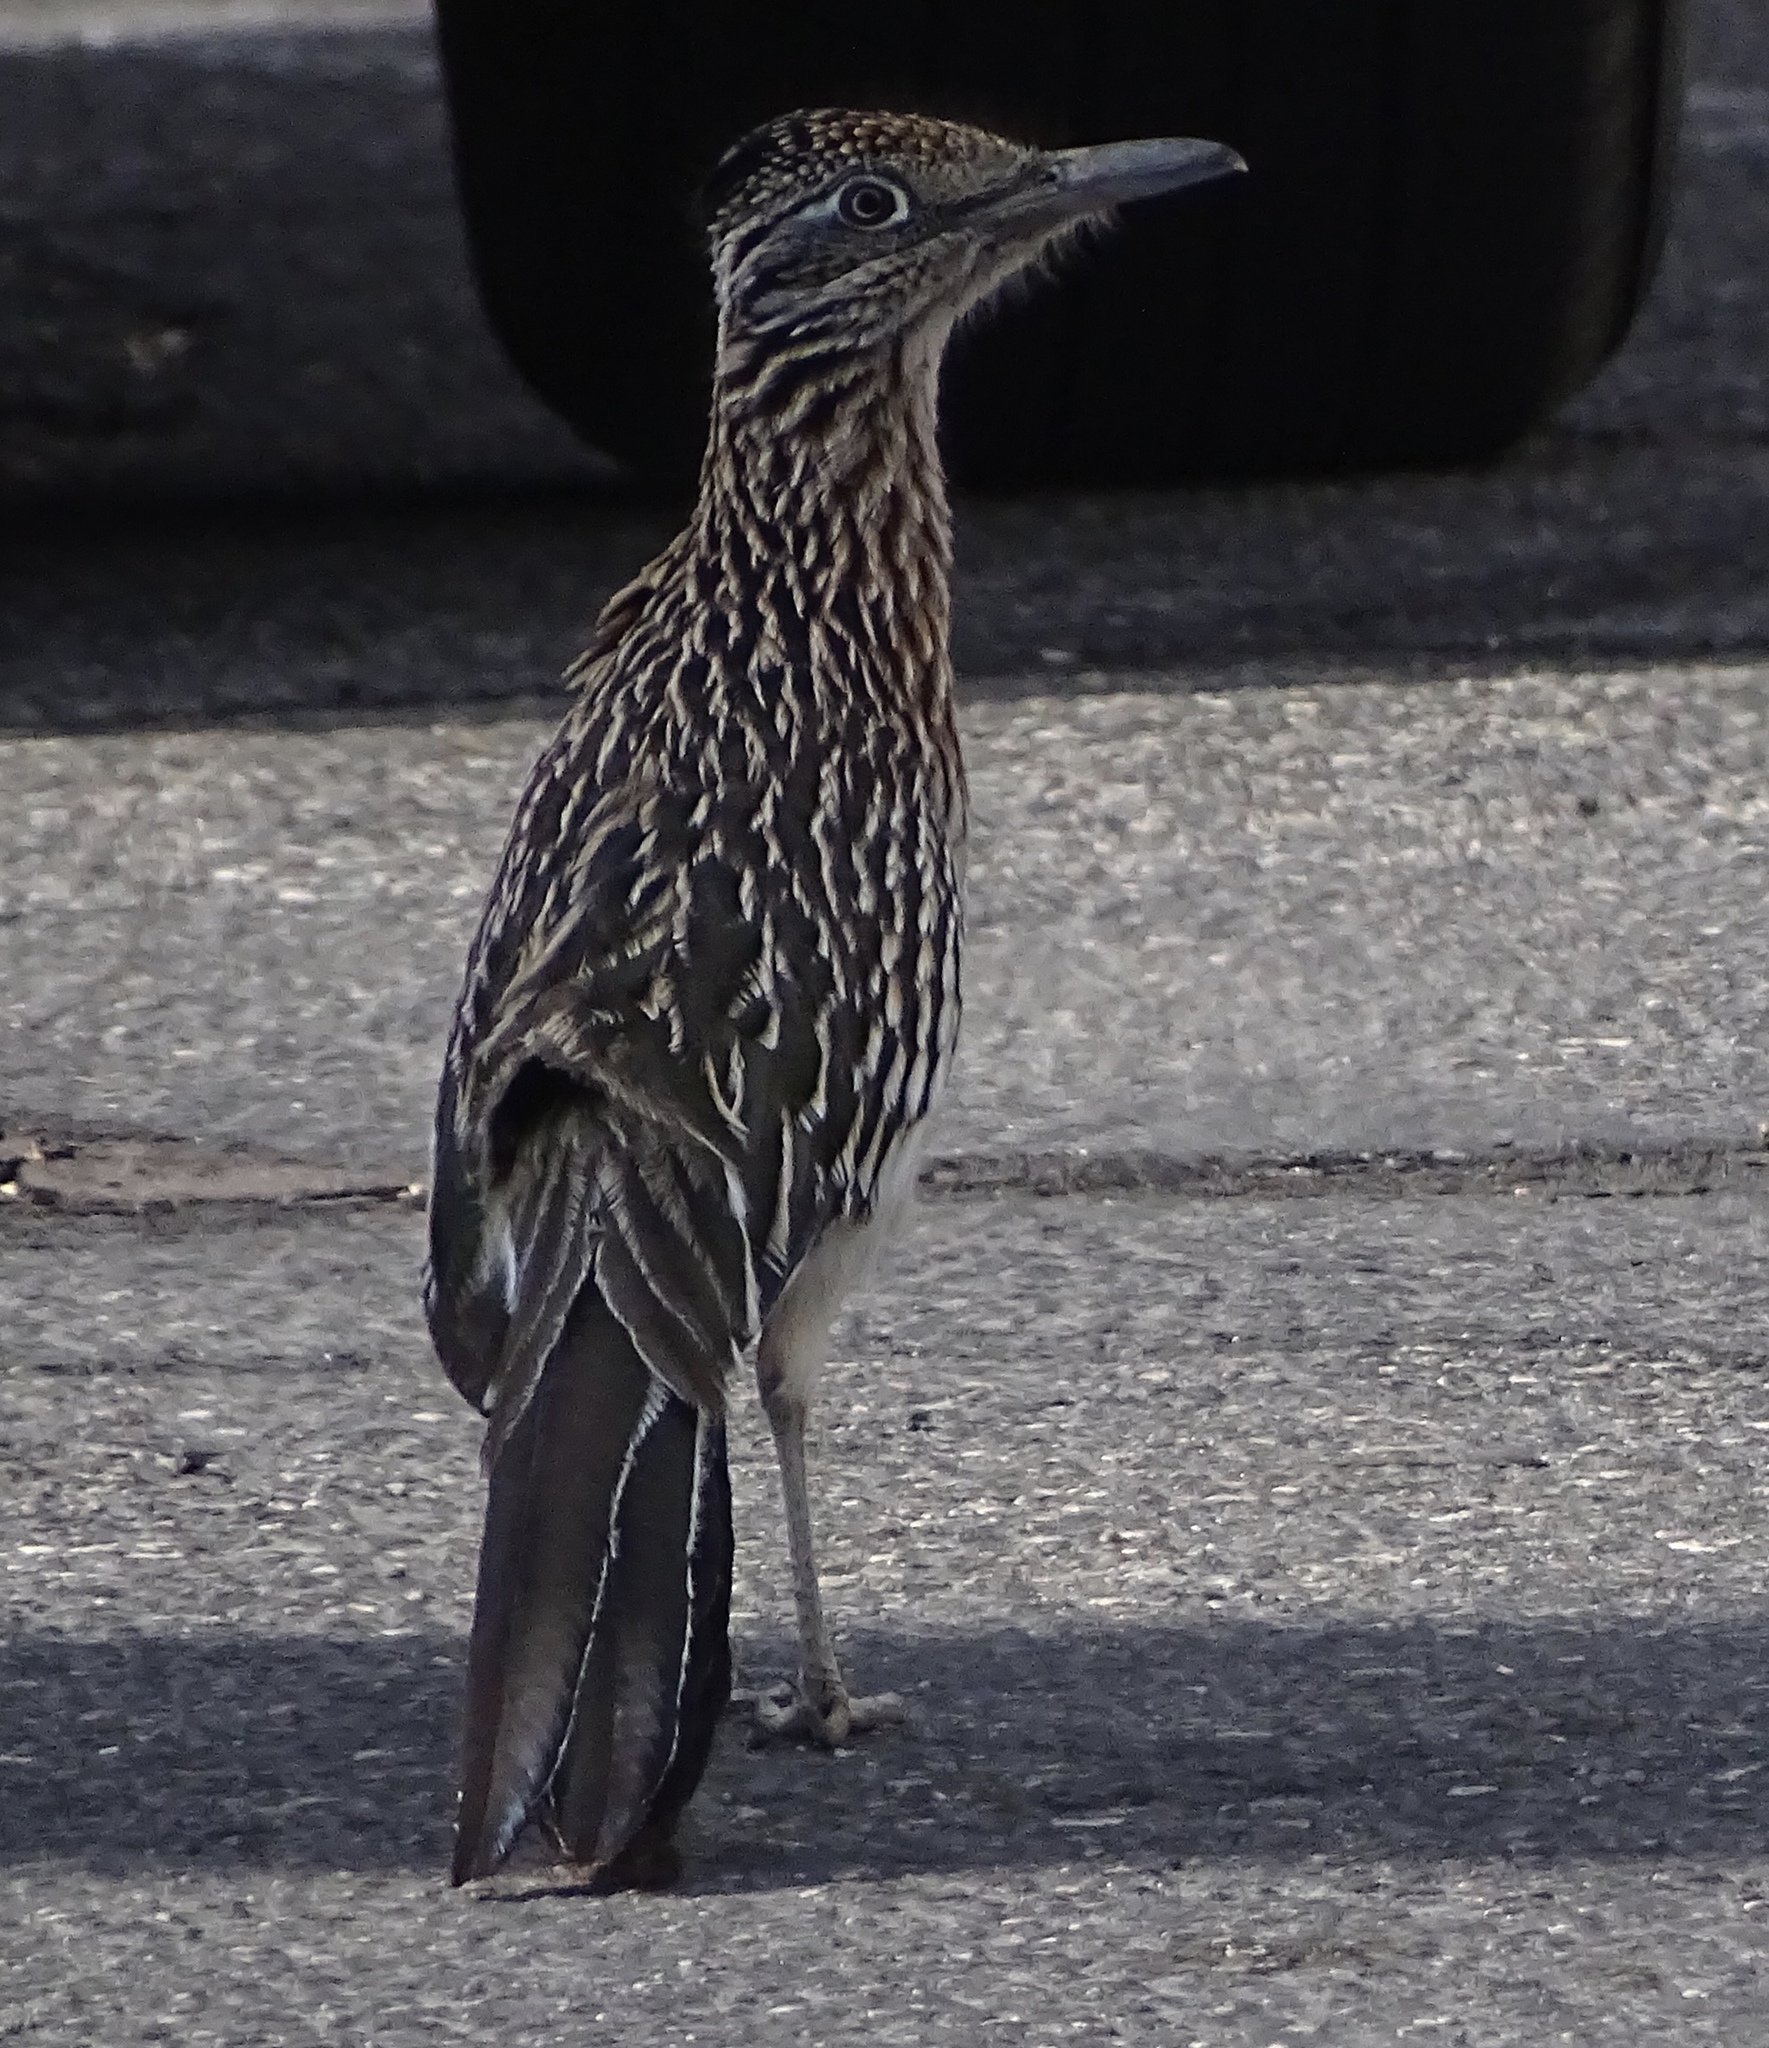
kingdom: Animalia
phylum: Chordata
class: Aves
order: Cuculiformes
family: Cuculidae
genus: Geococcyx
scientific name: Geococcyx californianus
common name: Greater roadrunner
